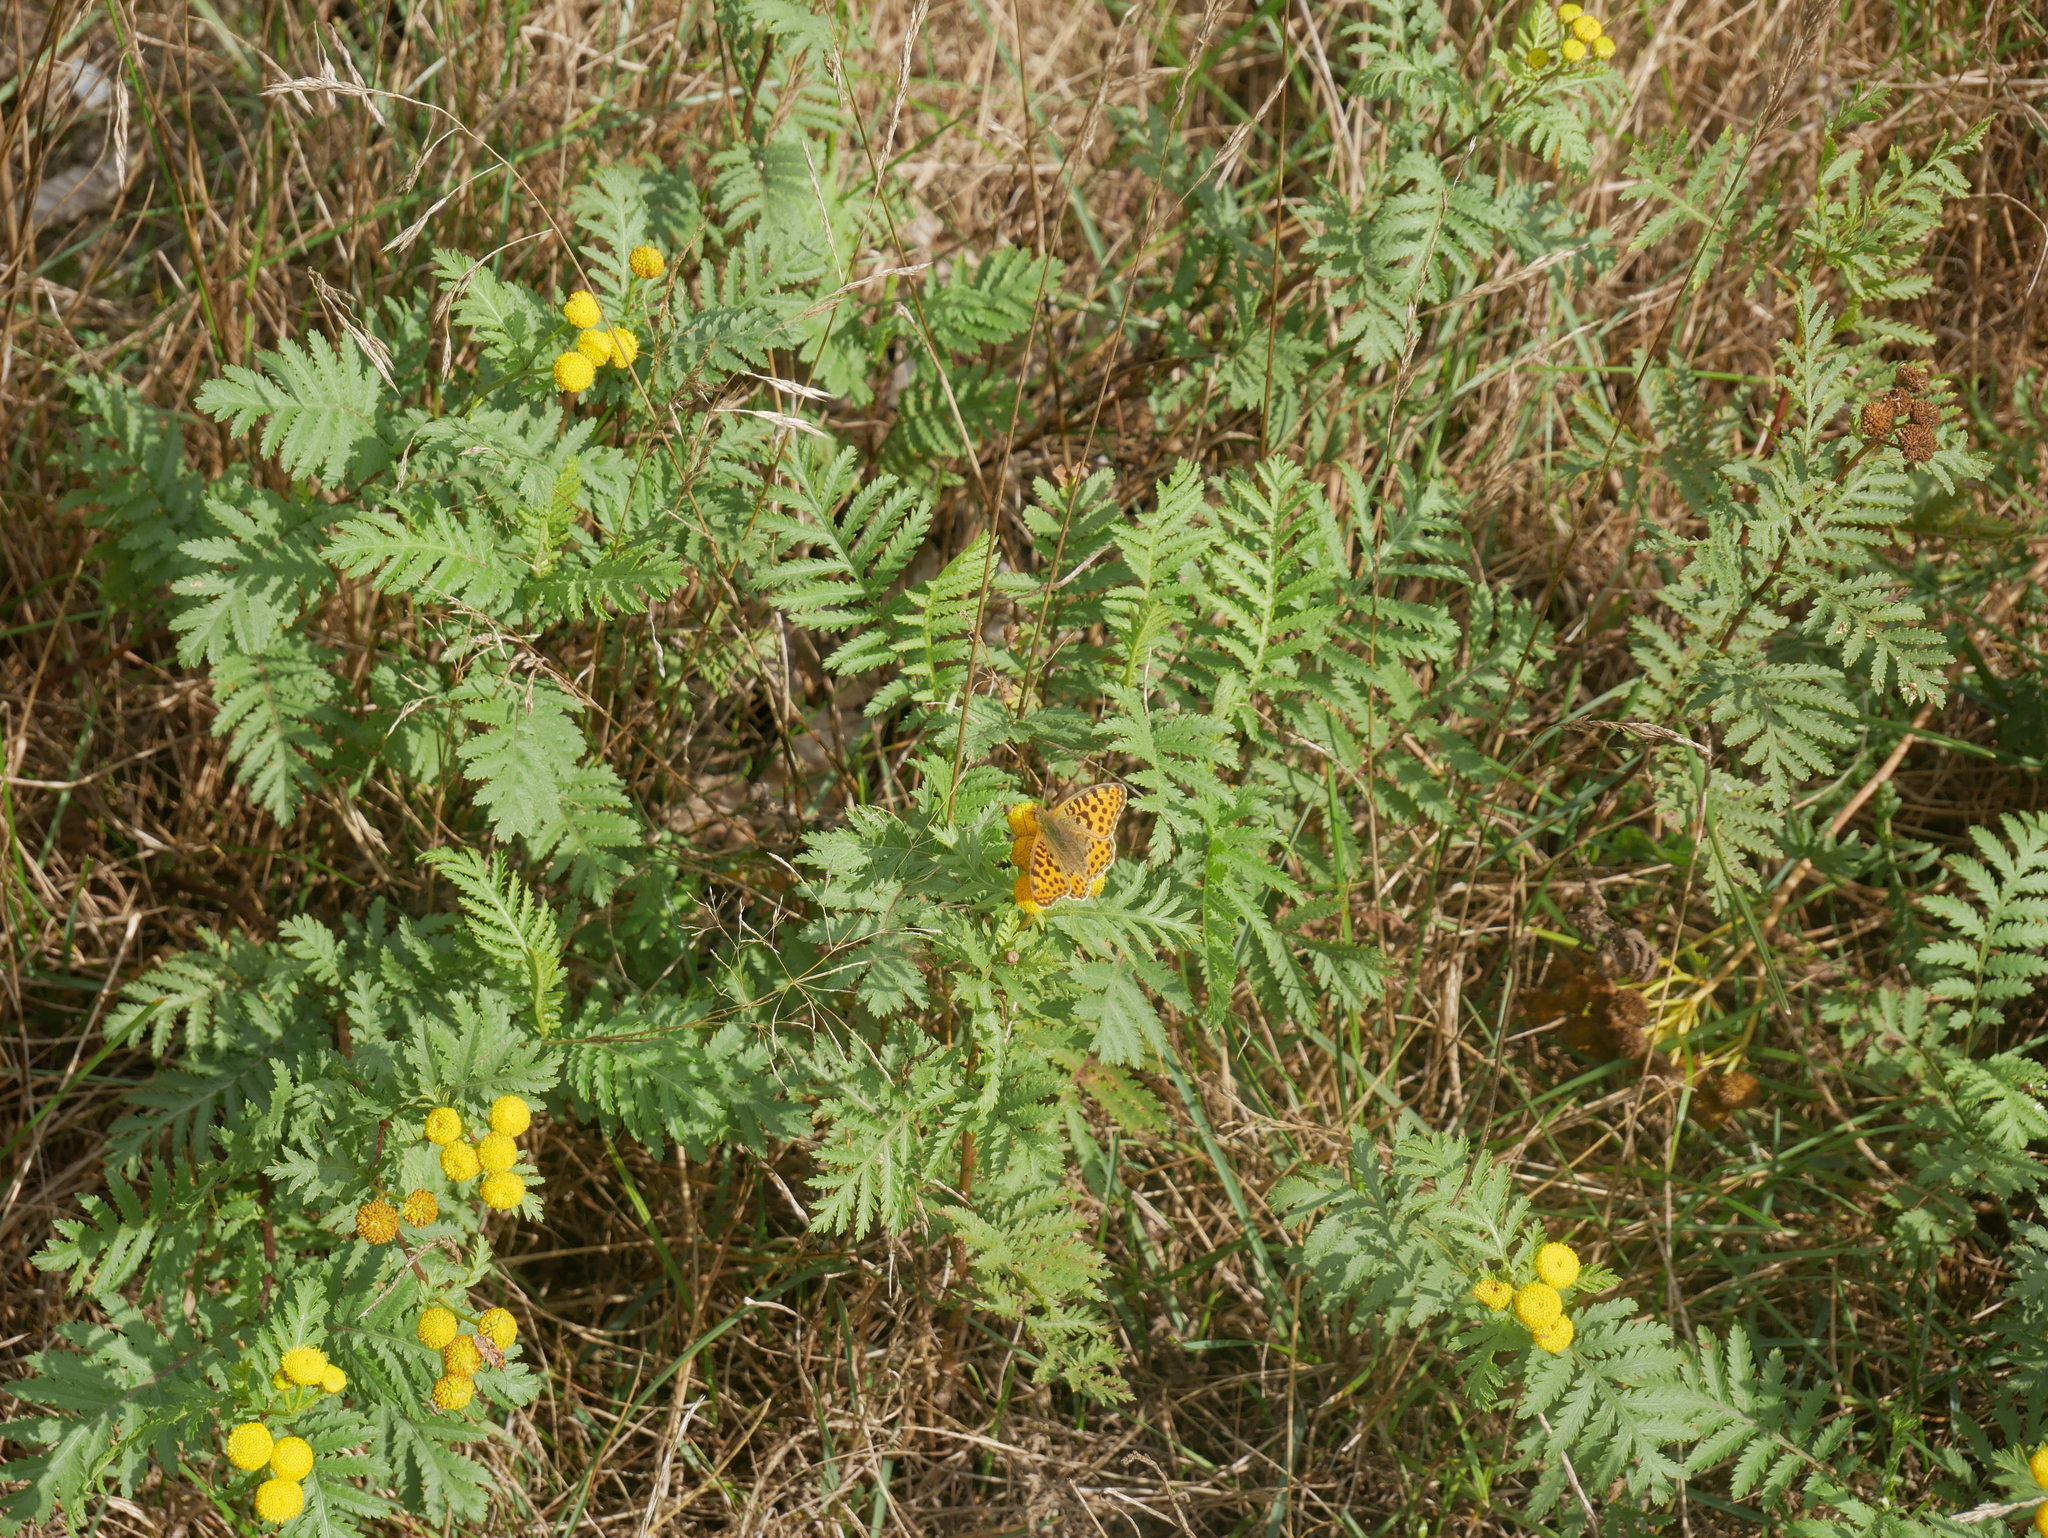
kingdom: Plantae
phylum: Tracheophyta
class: Magnoliopsida
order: Asterales
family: Asteraceae
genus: Tanacetum
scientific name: Tanacetum vulgare
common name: Common tansy
